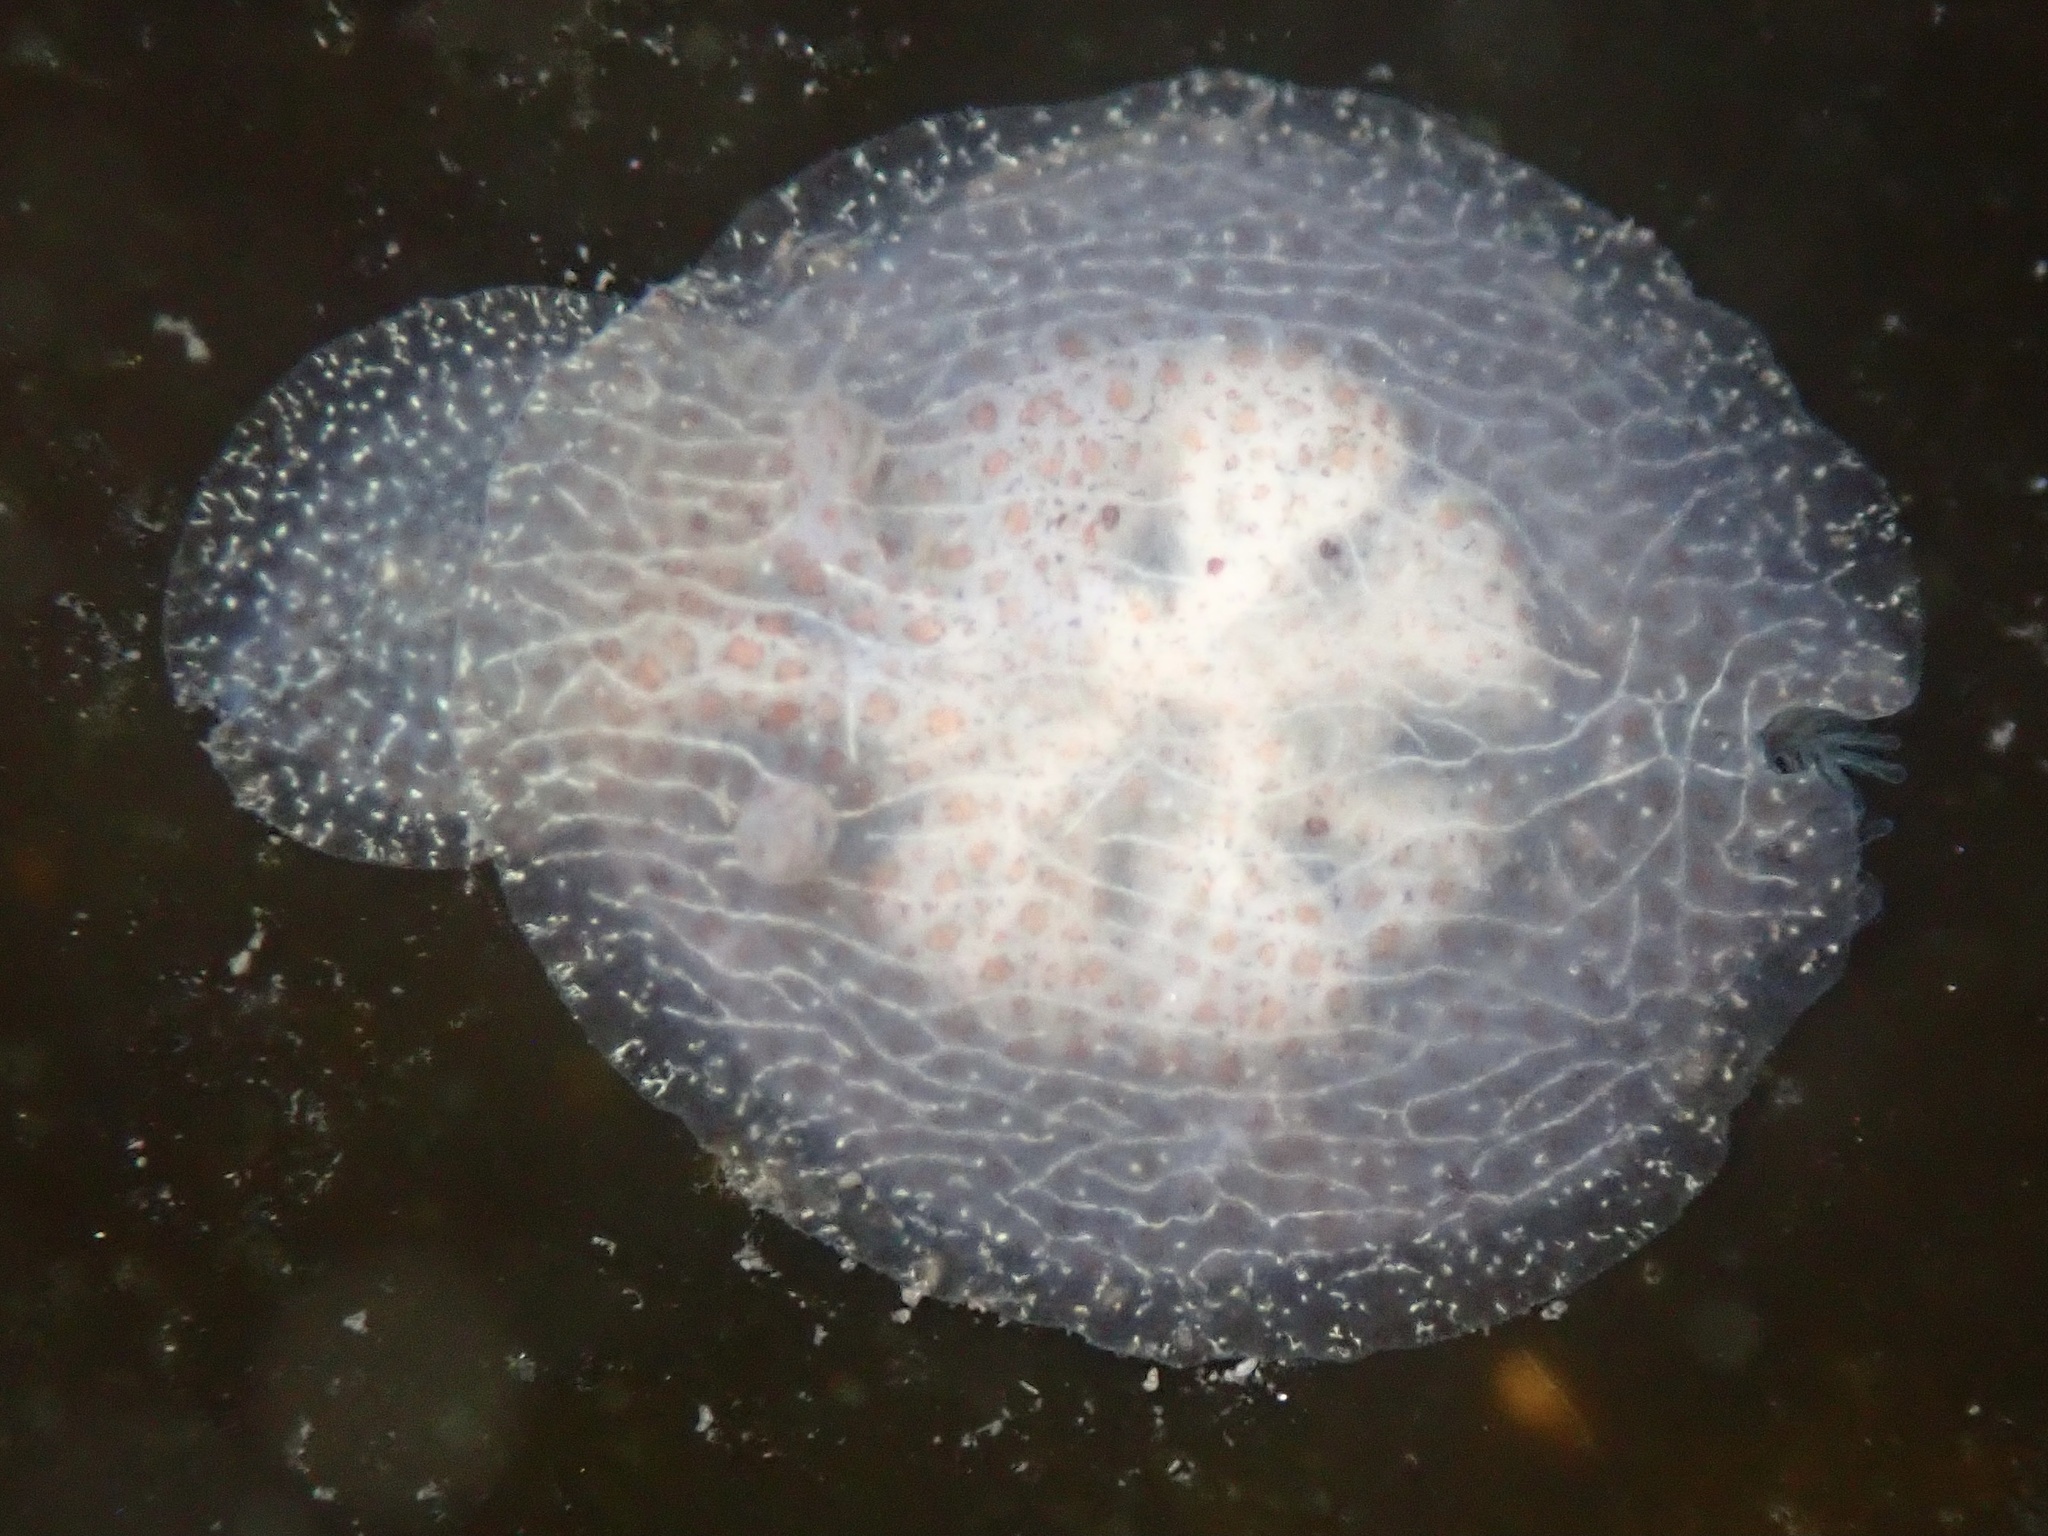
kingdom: Animalia
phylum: Mollusca
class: Gastropoda
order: Nudibranchia
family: Corambidae
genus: Corambe
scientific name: Corambe pacifica
